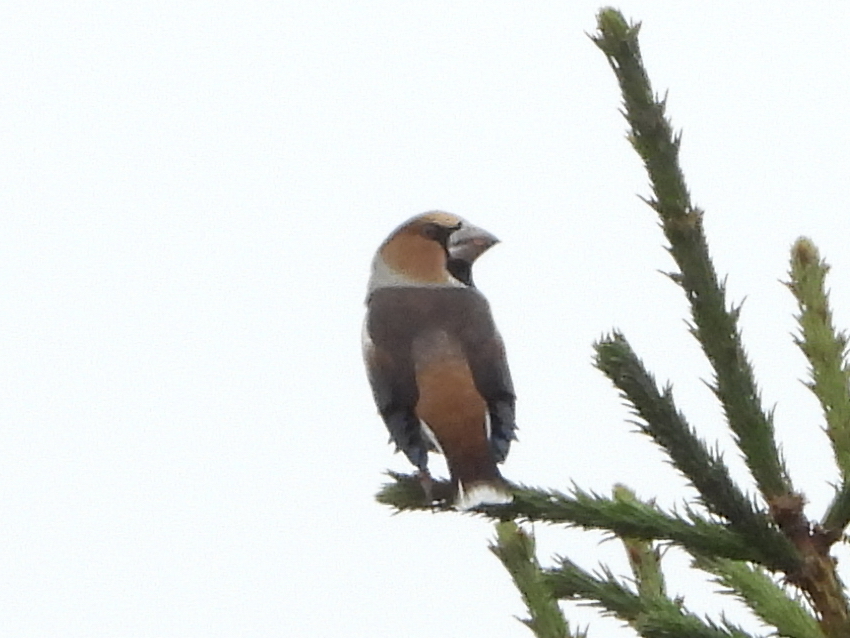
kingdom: Animalia
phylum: Chordata
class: Aves
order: Passeriformes
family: Fringillidae
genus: Coccothraustes
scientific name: Coccothraustes coccothraustes
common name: Hawfinch
